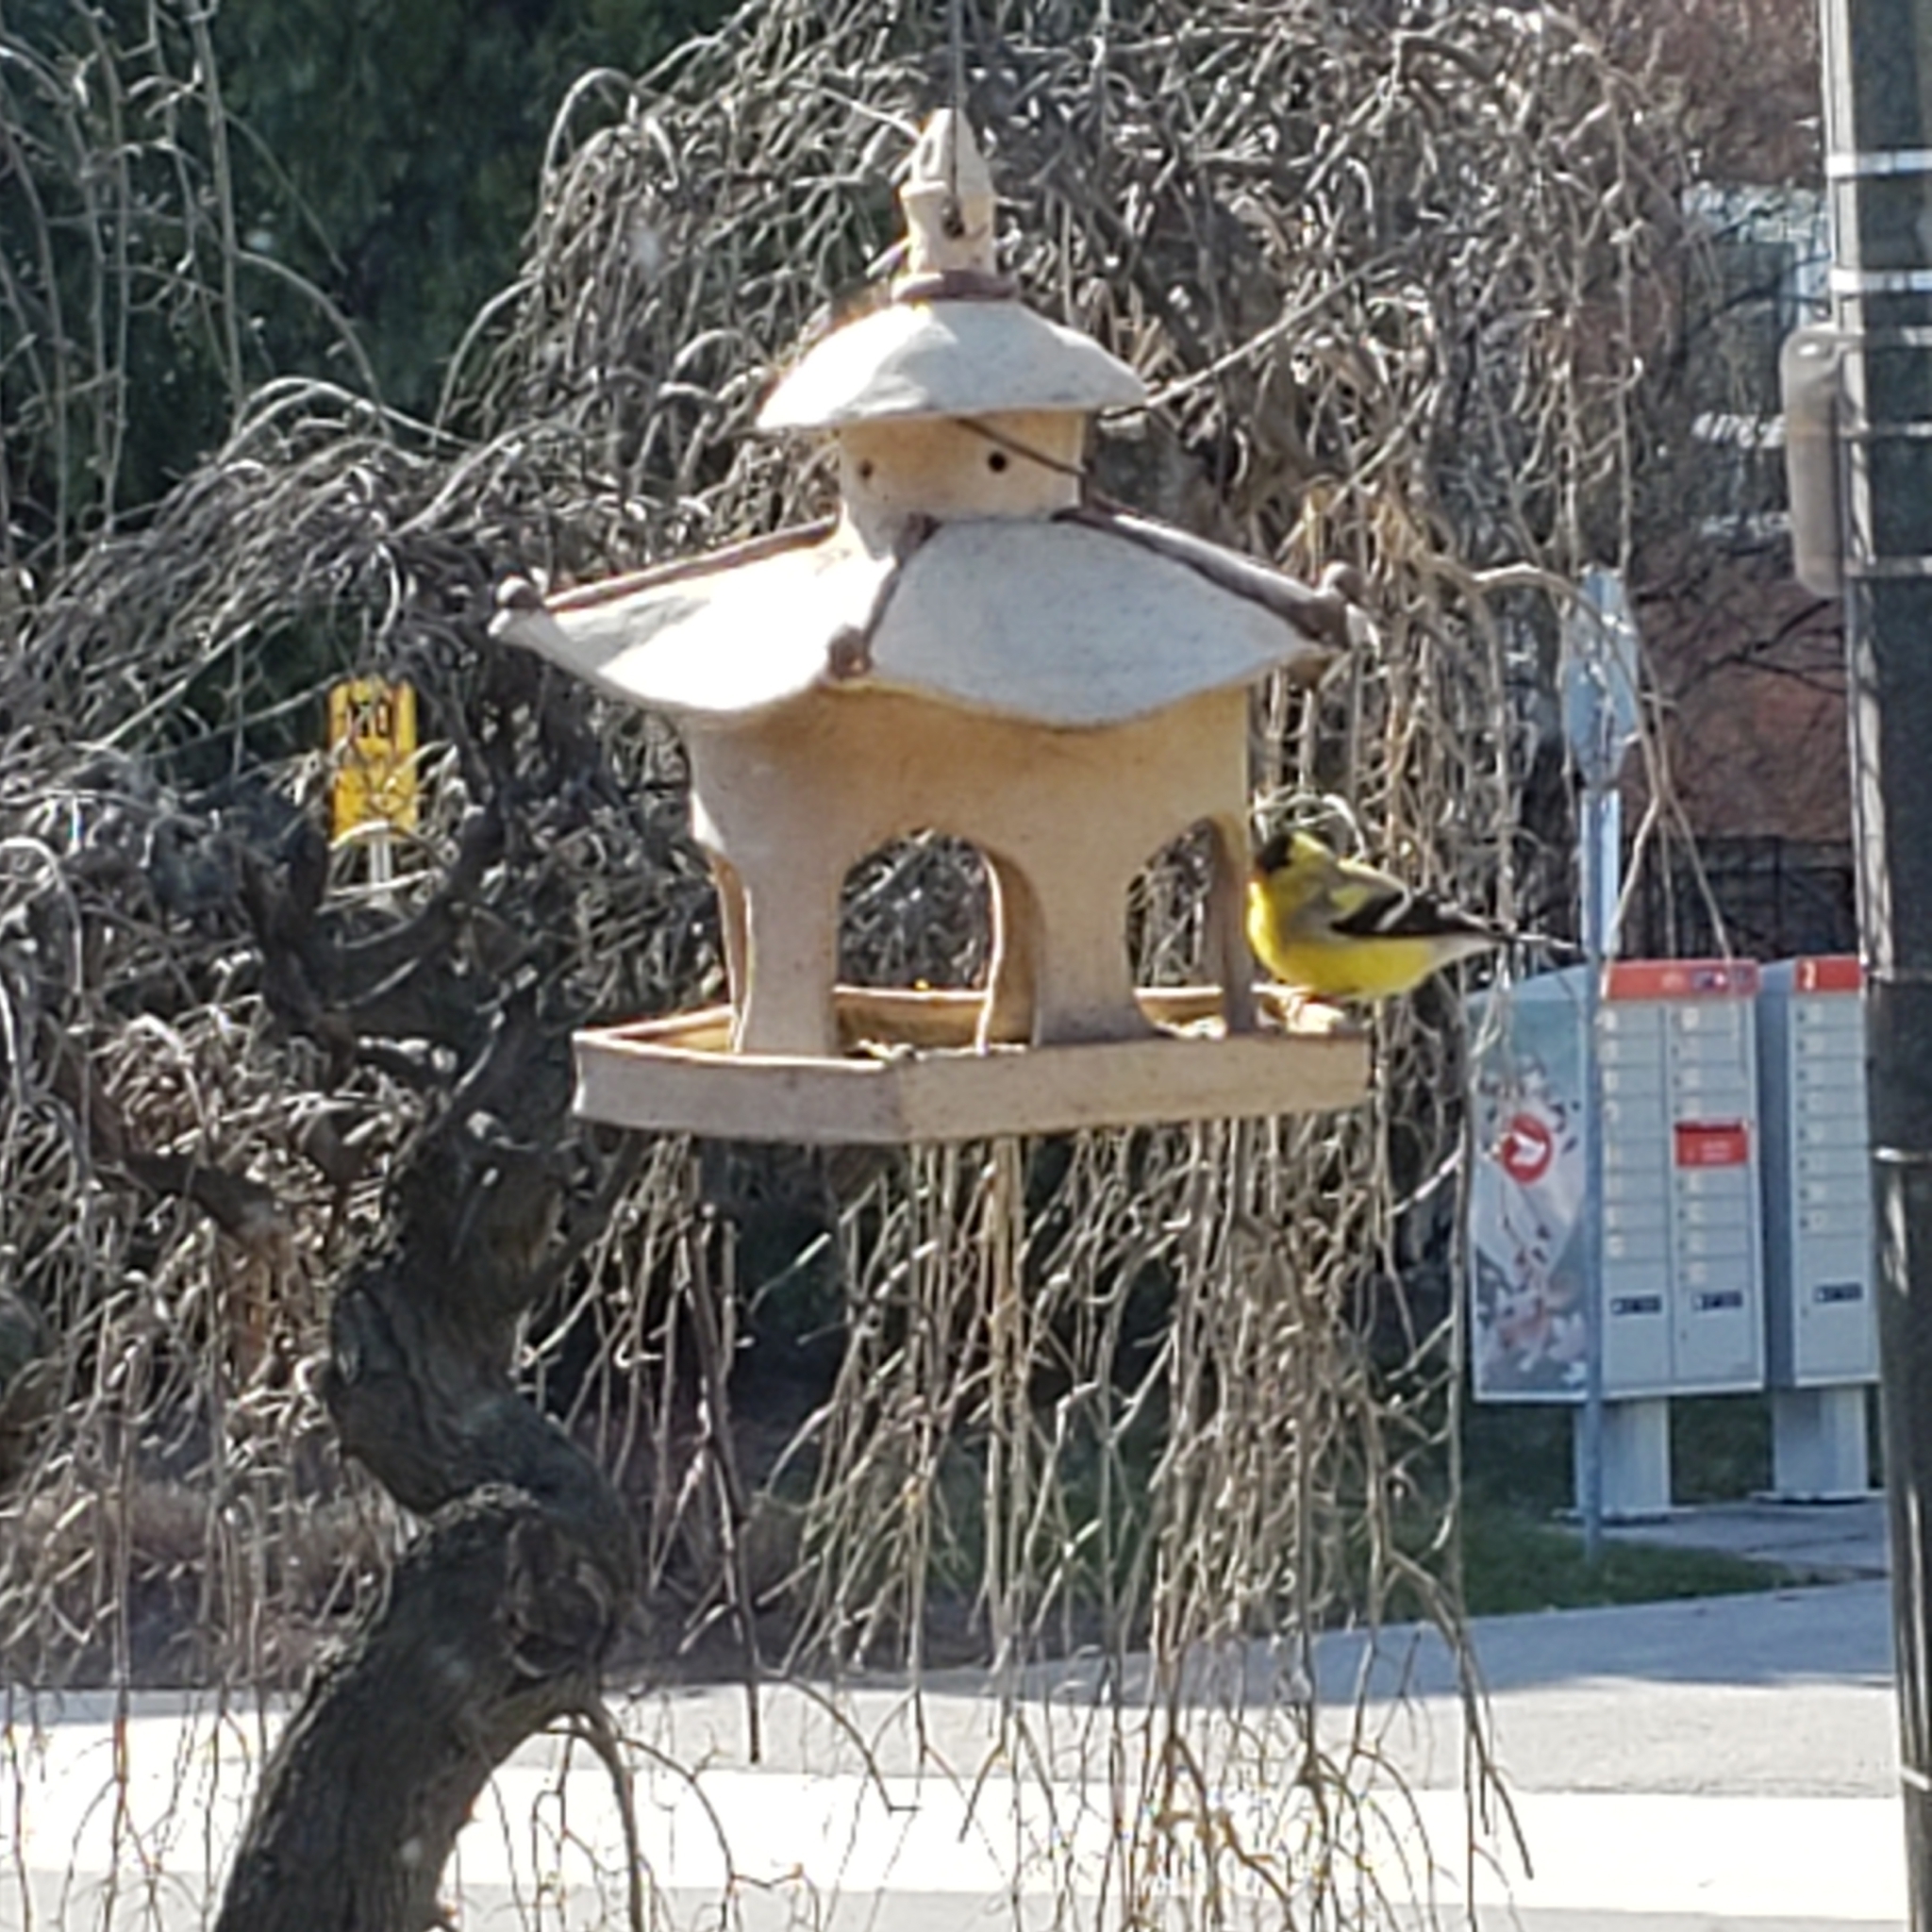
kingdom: Animalia
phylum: Chordata
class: Aves
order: Passeriformes
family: Fringillidae
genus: Spinus
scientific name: Spinus tristis
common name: American goldfinch
